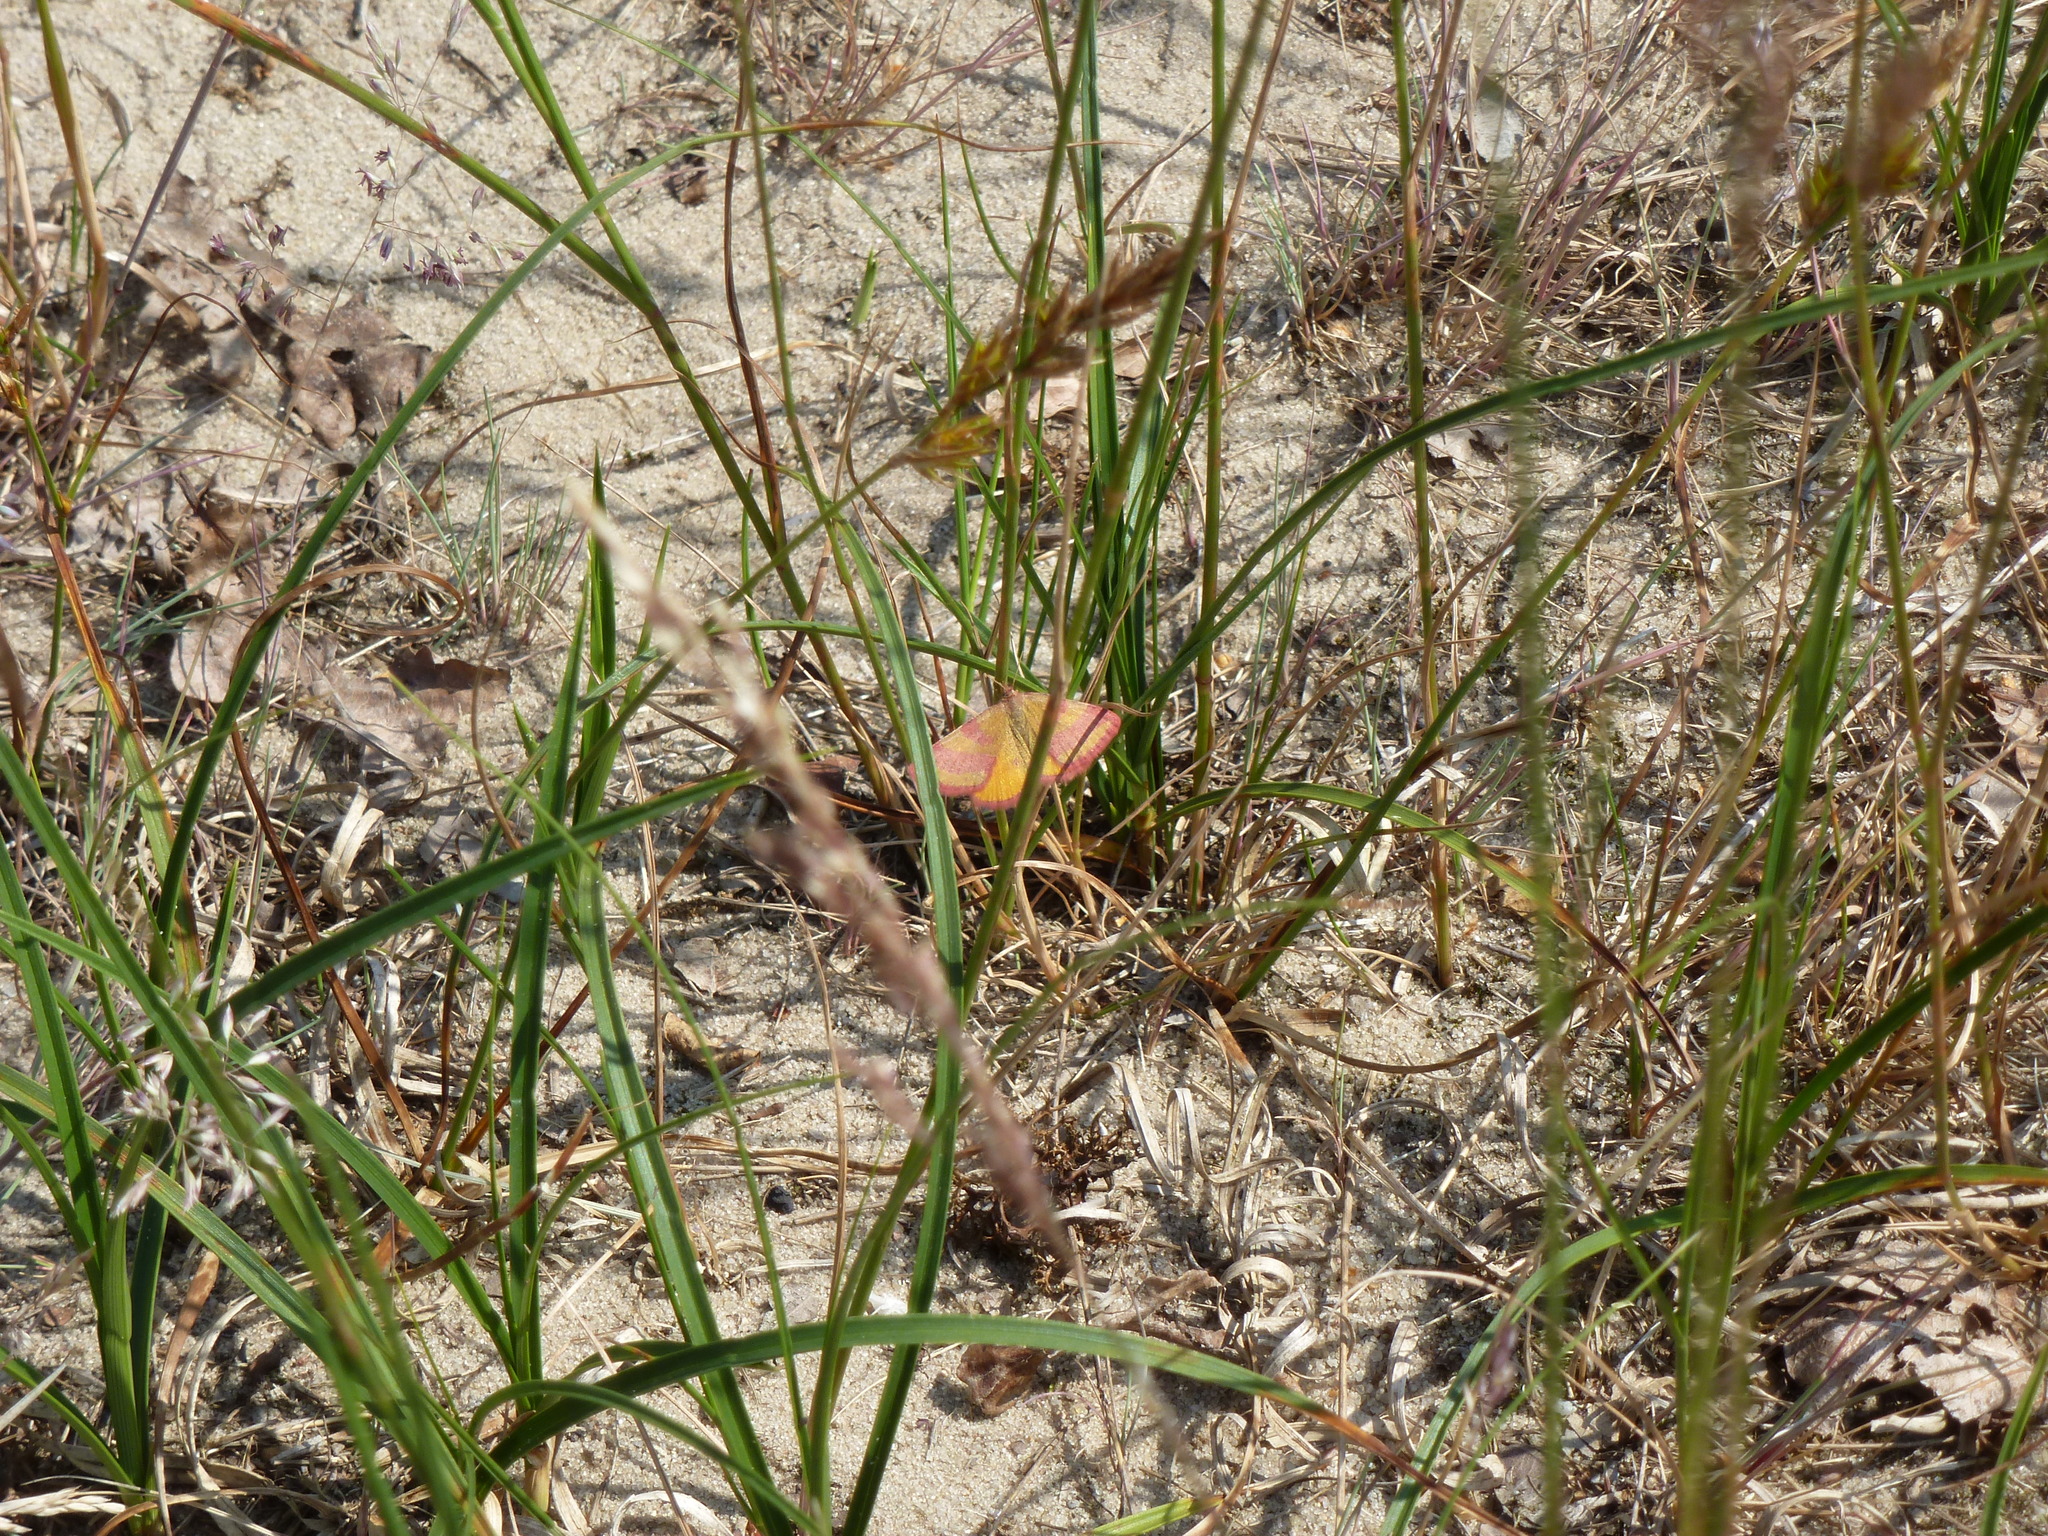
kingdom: Animalia
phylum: Arthropoda
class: Insecta
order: Lepidoptera
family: Geometridae
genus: Lythria
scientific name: Lythria cruentaria
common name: Purple-barred yellow
